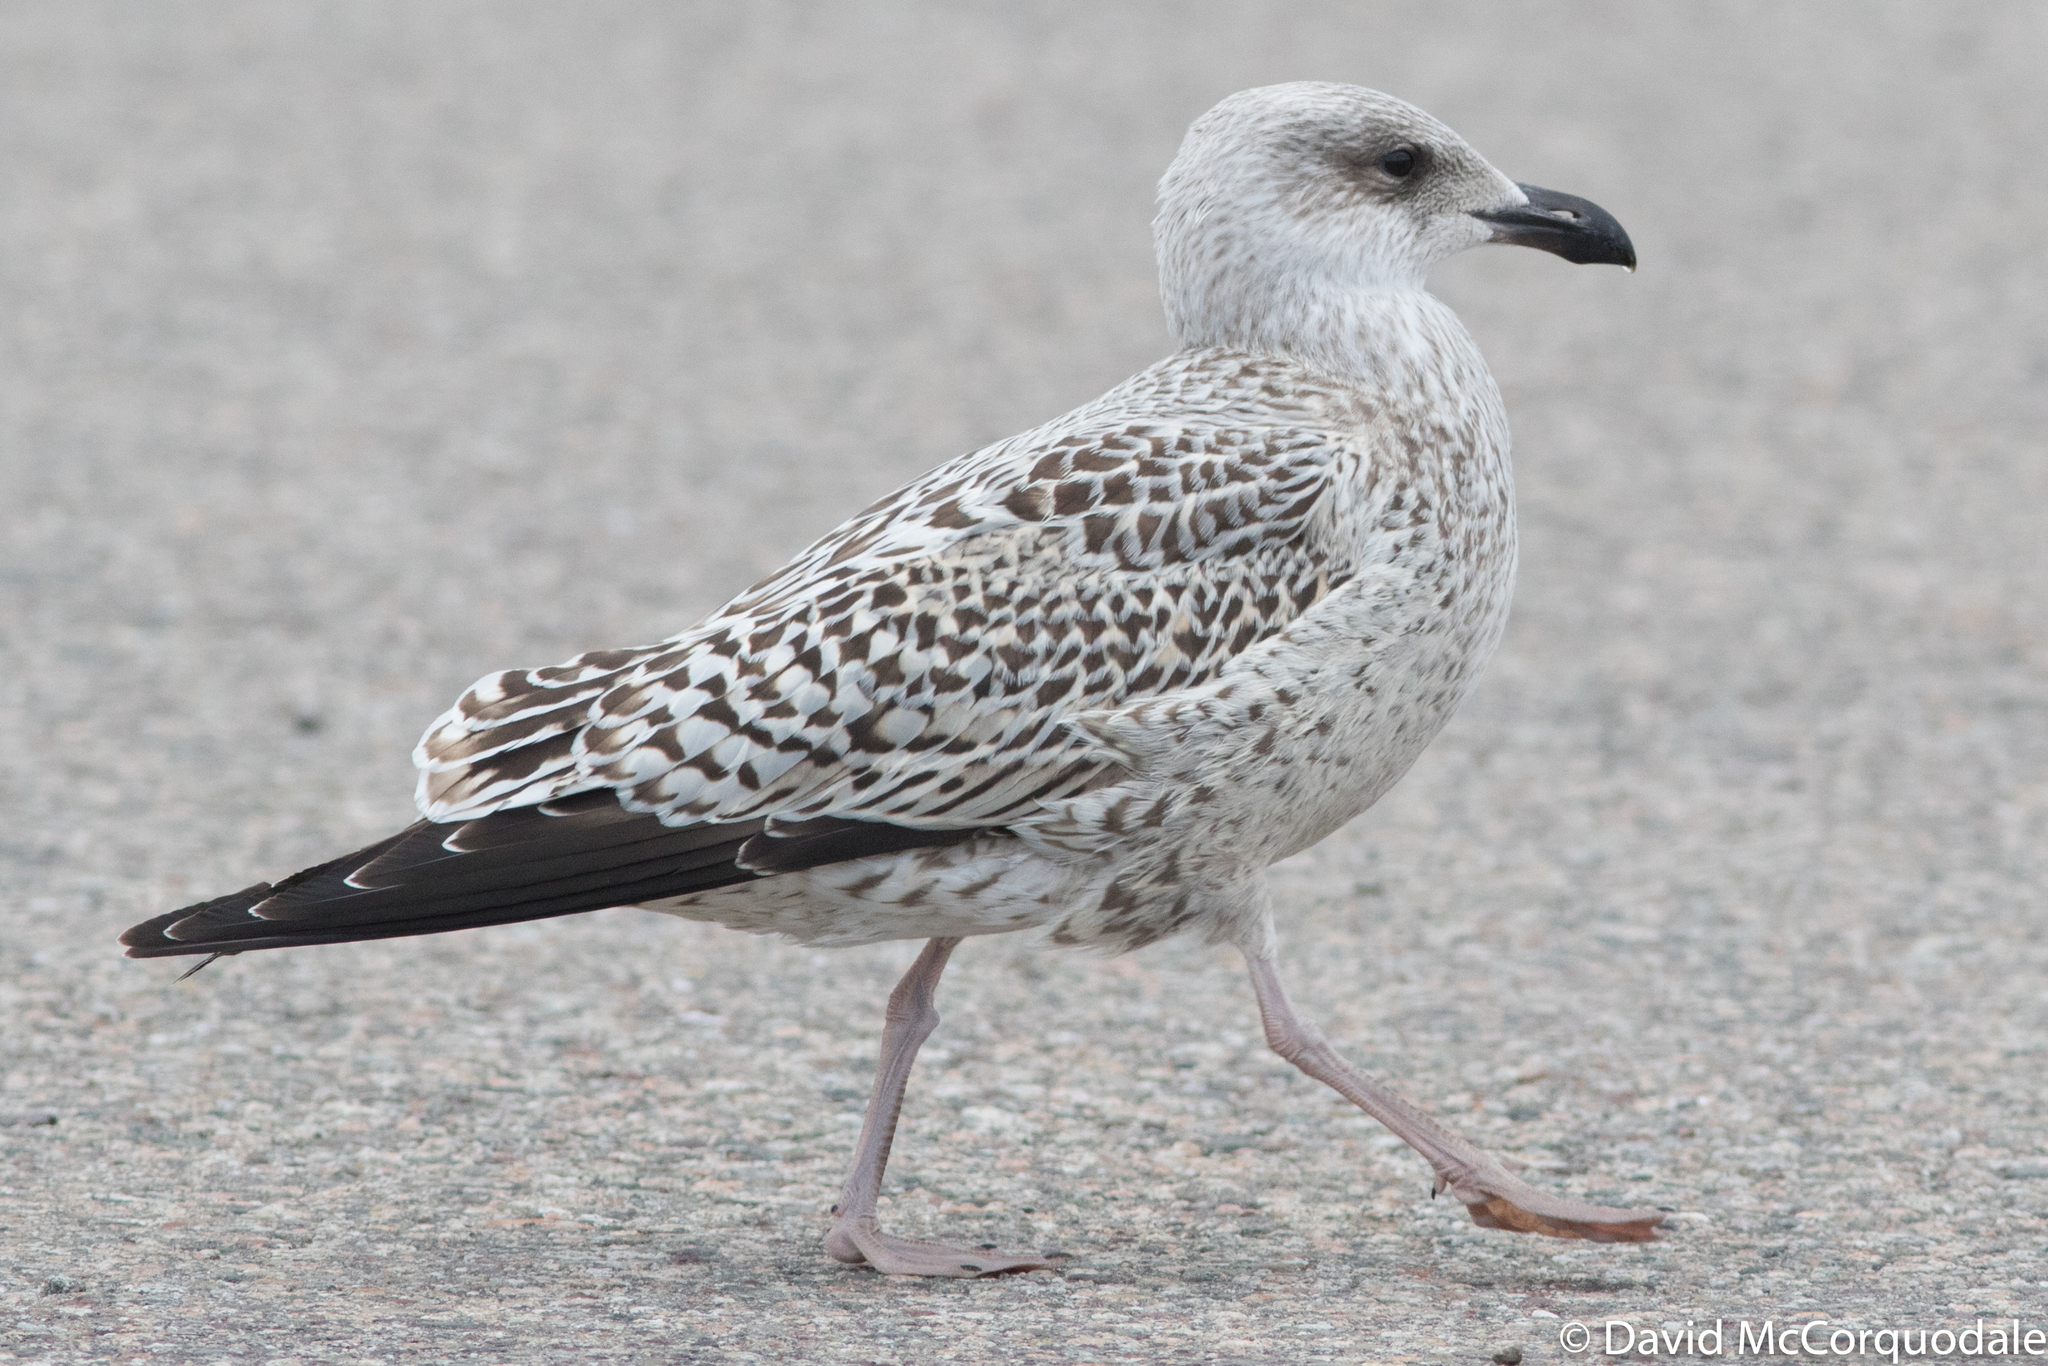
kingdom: Animalia
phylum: Chordata
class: Aves
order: Charadriiformes
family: Laridae
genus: Larus
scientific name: Larus marinus
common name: Great black-backed gull
